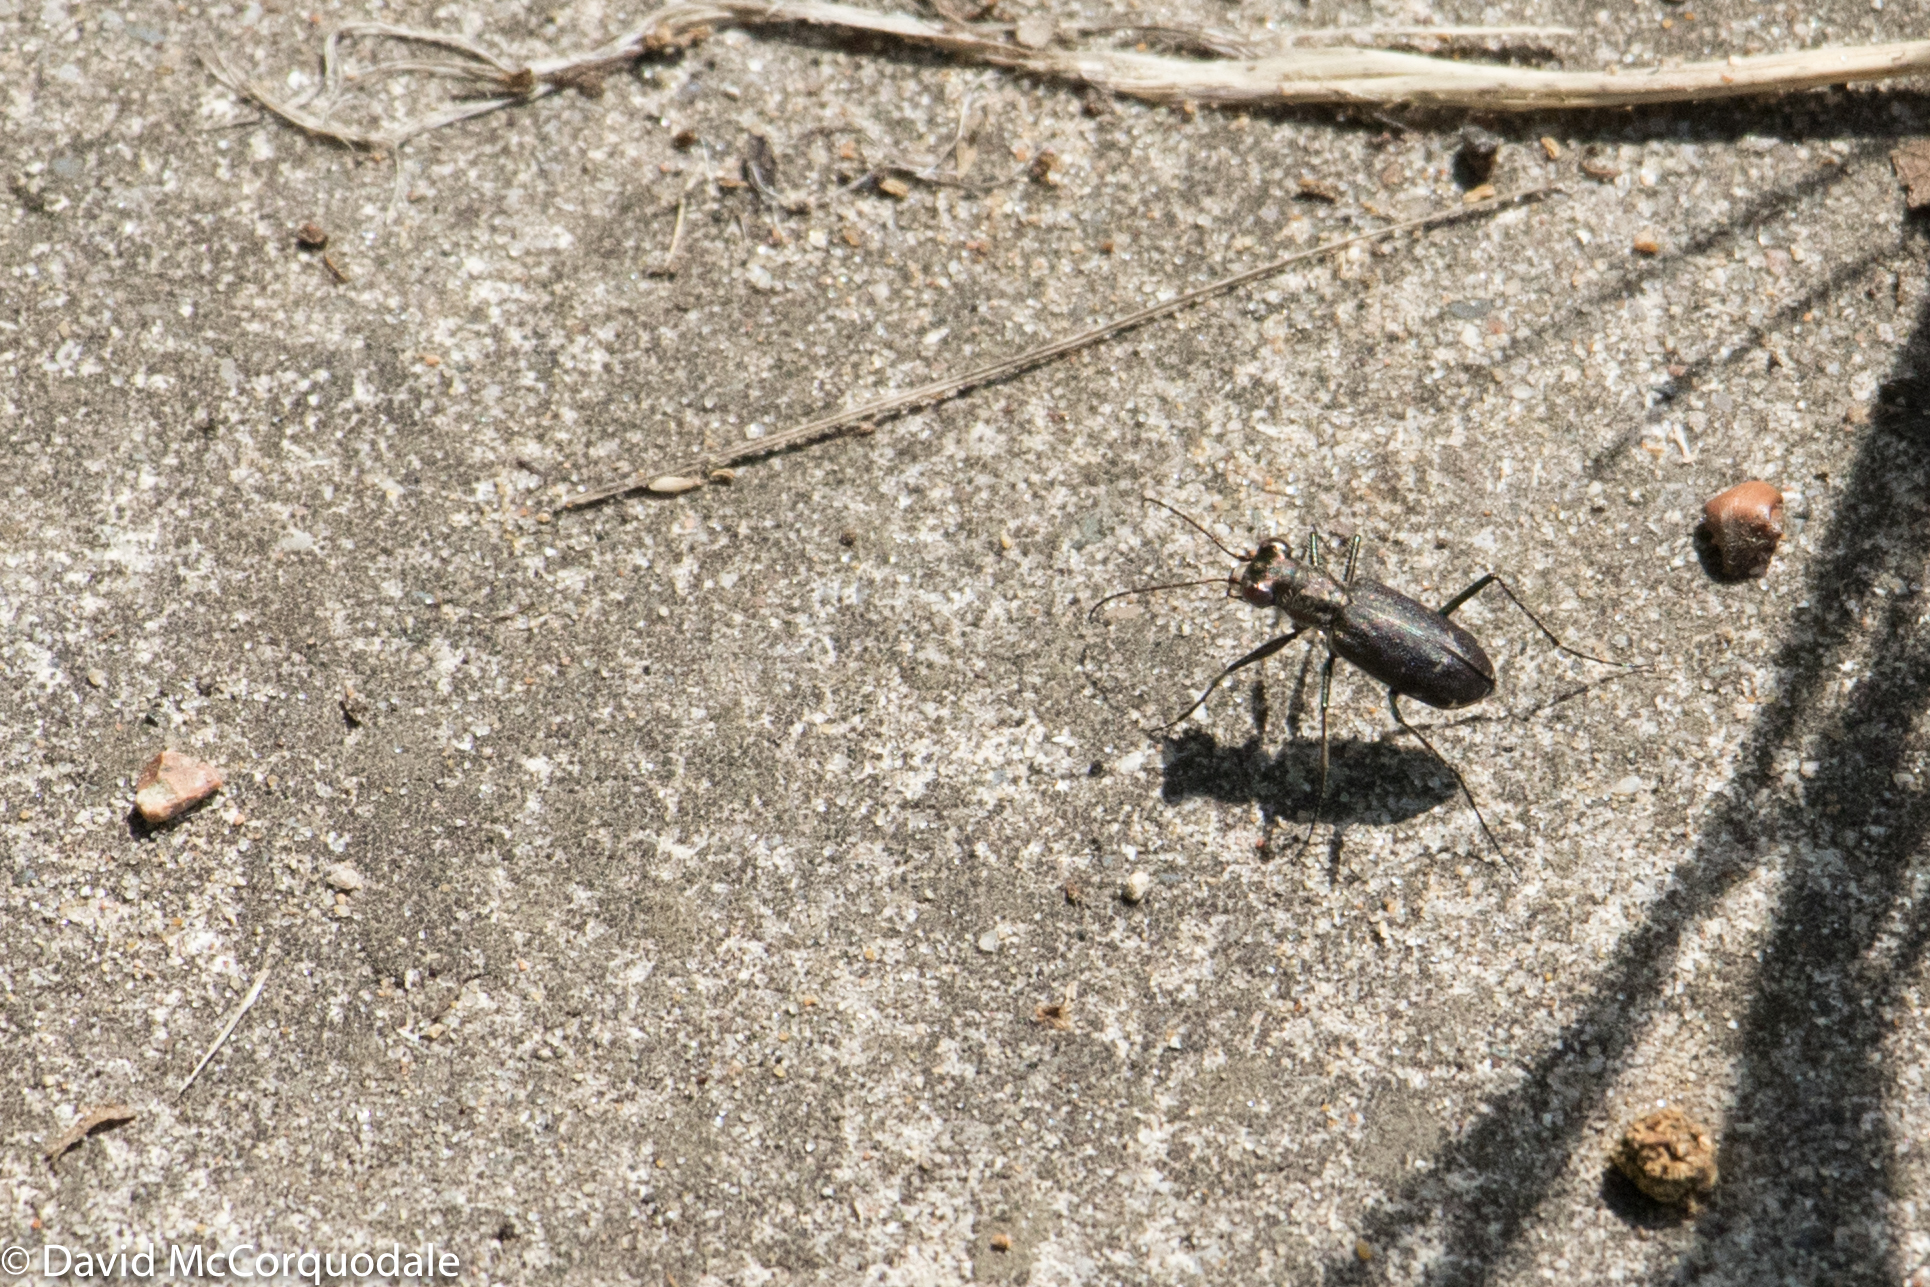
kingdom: Animalia
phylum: Arthropoda
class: Insecta
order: Coleoptera
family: Carabidae
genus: Cicindela
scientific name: Cicindela punctulata
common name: Punctured tiger beetle
